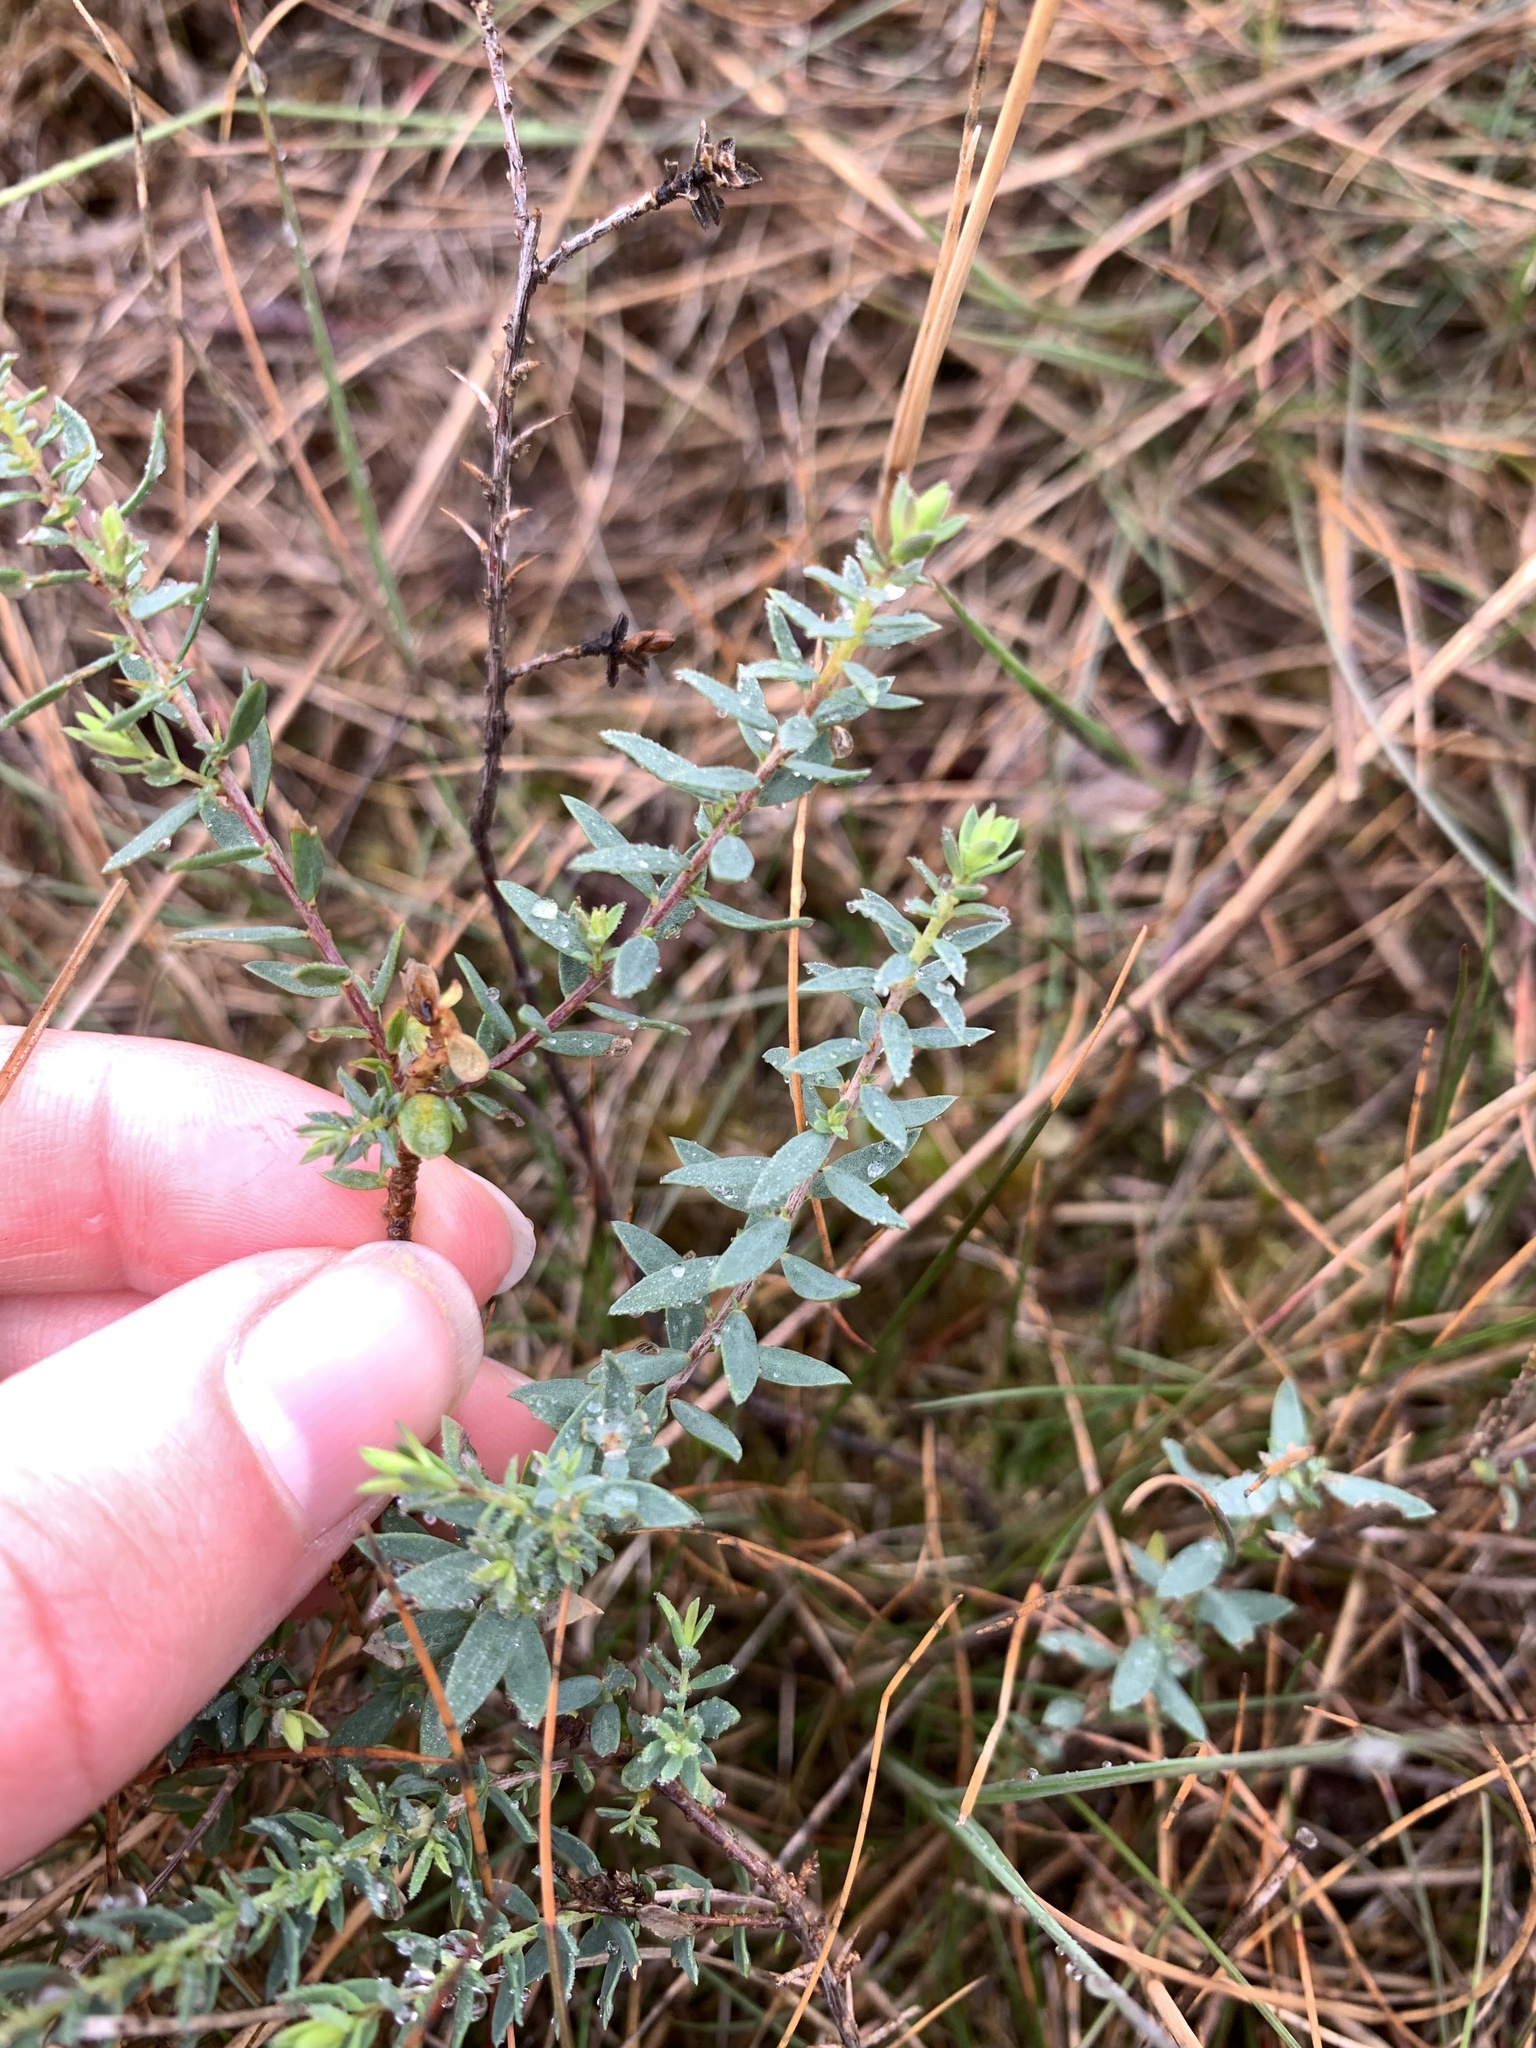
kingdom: Plantae
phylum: Tracheophyta
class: Magnoliopsida
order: Fabales
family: Fabaceae
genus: Genista
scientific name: Genista anglica
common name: Petty whin
